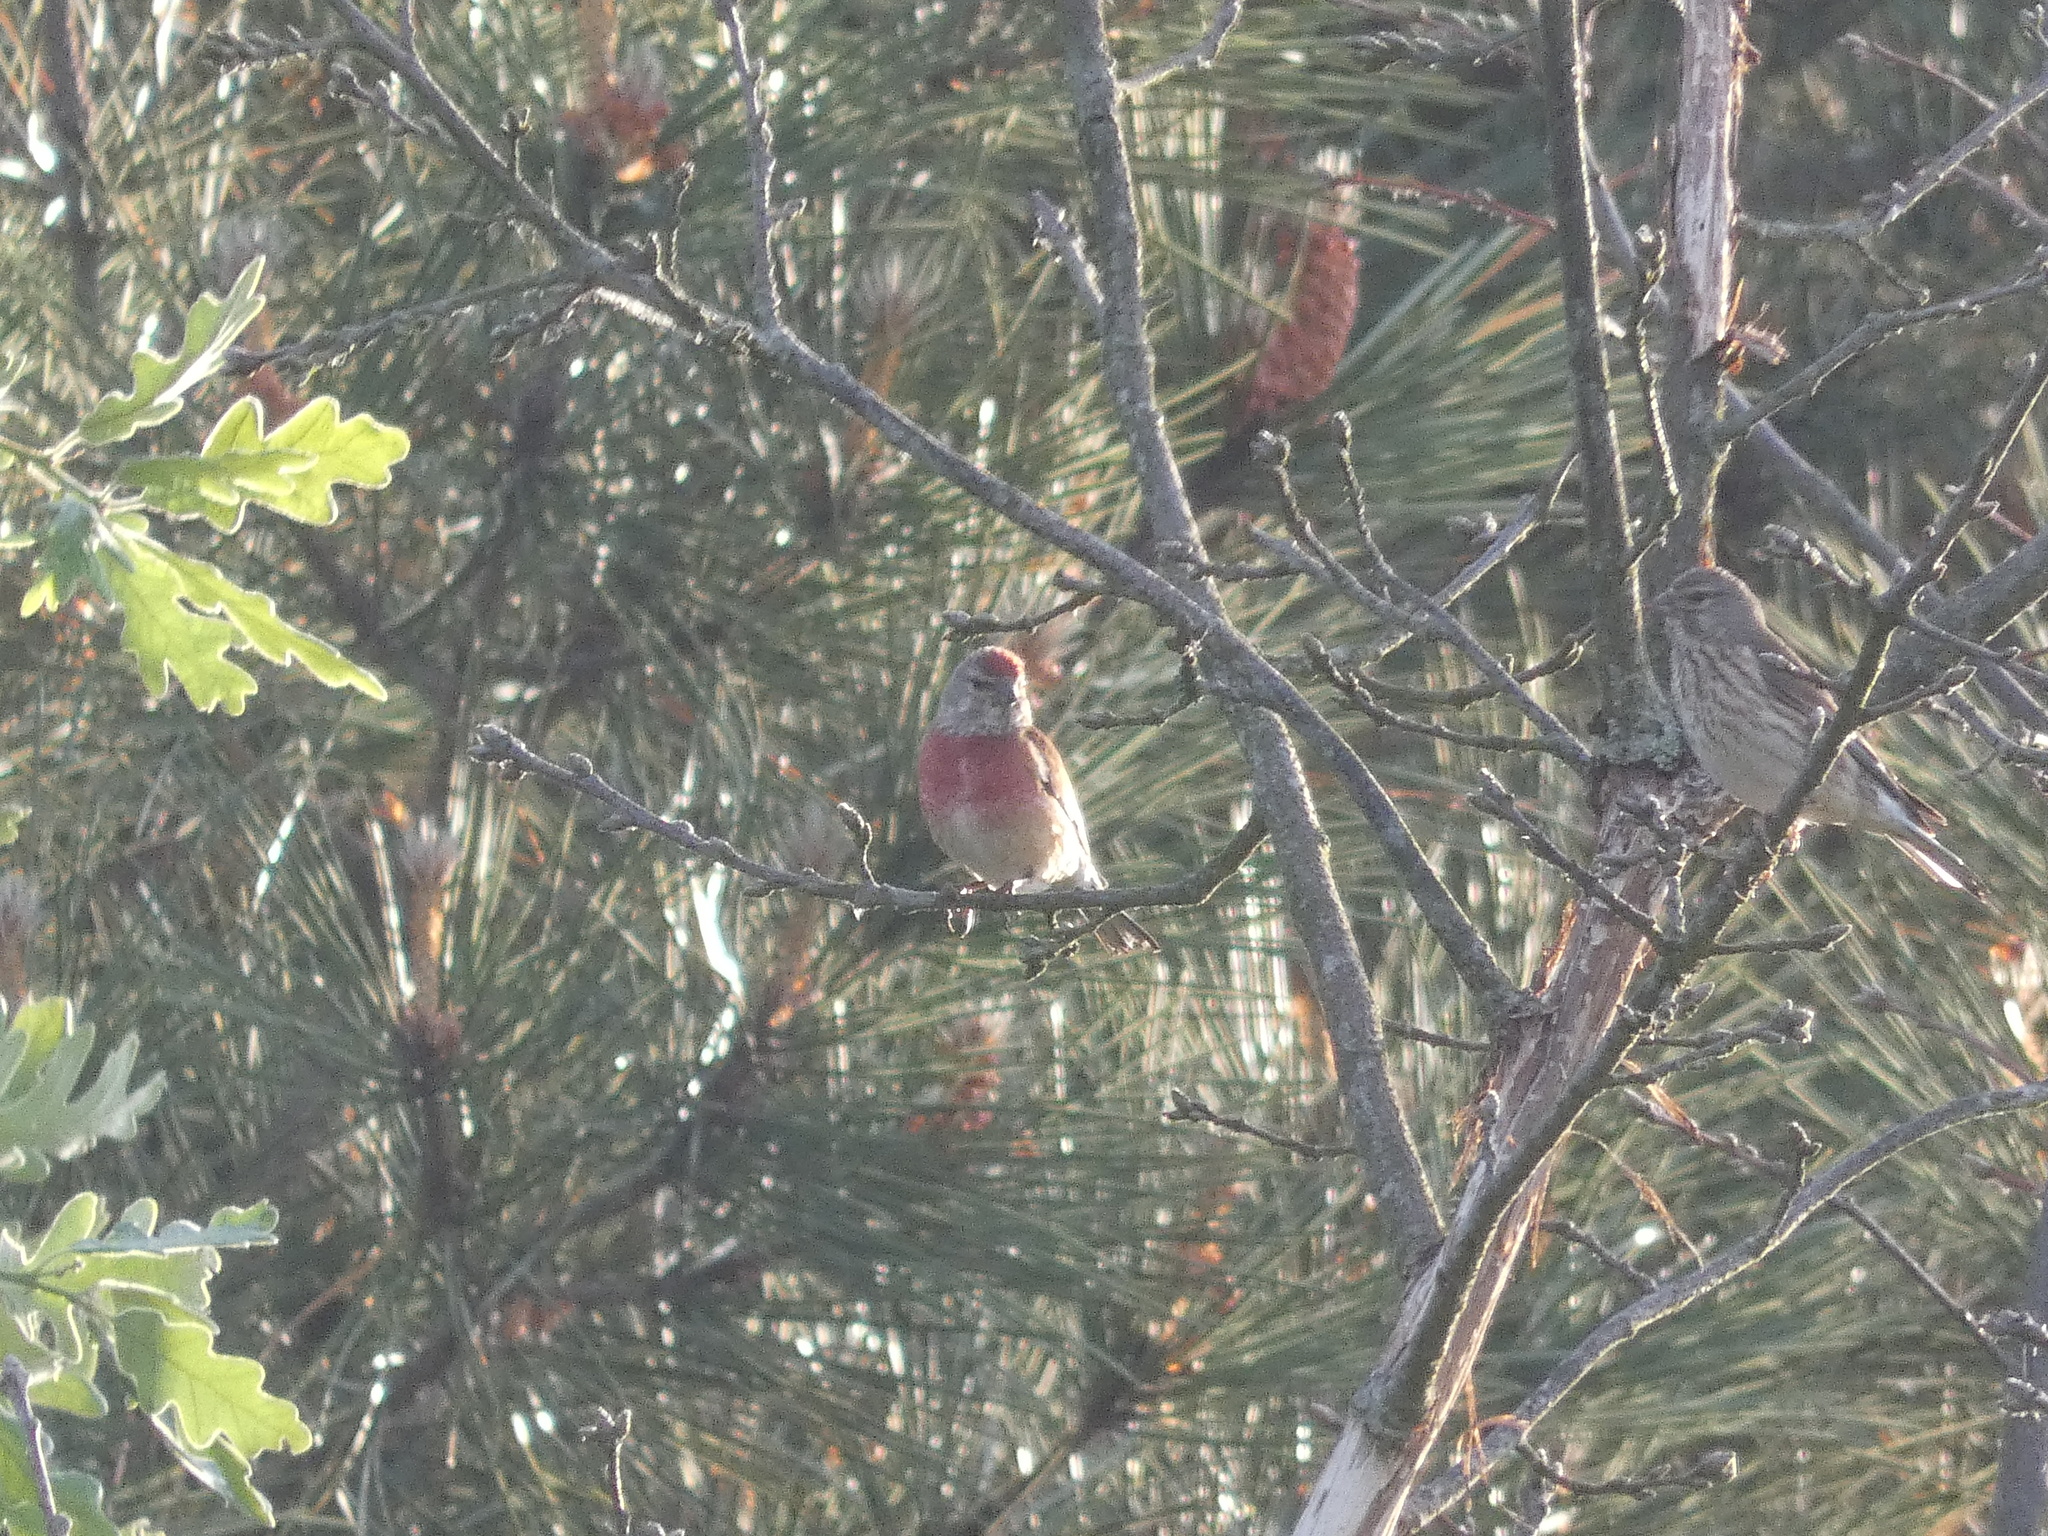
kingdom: Animalia
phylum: Chordata
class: Aves
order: Passeriformes
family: Fringillidae
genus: Linaria
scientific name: Linaria cannabina
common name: Common linnet
